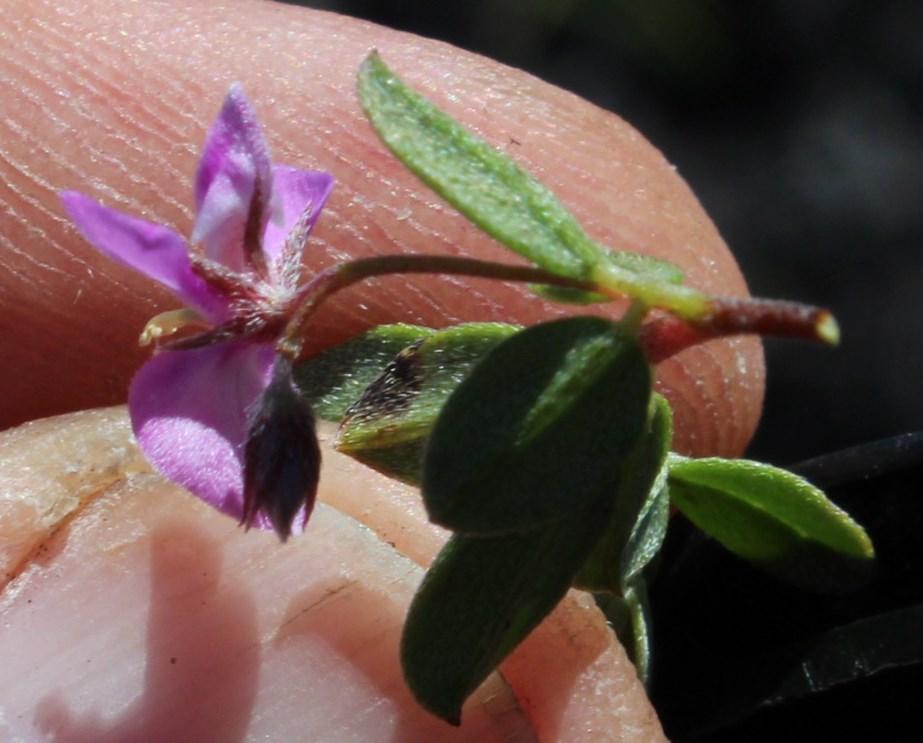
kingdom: Plantae
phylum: Tracheophyta
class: Magnoliopsida
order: Fabales
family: Fabaceae
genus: Indigofera
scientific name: Indigofera sarmentosa
